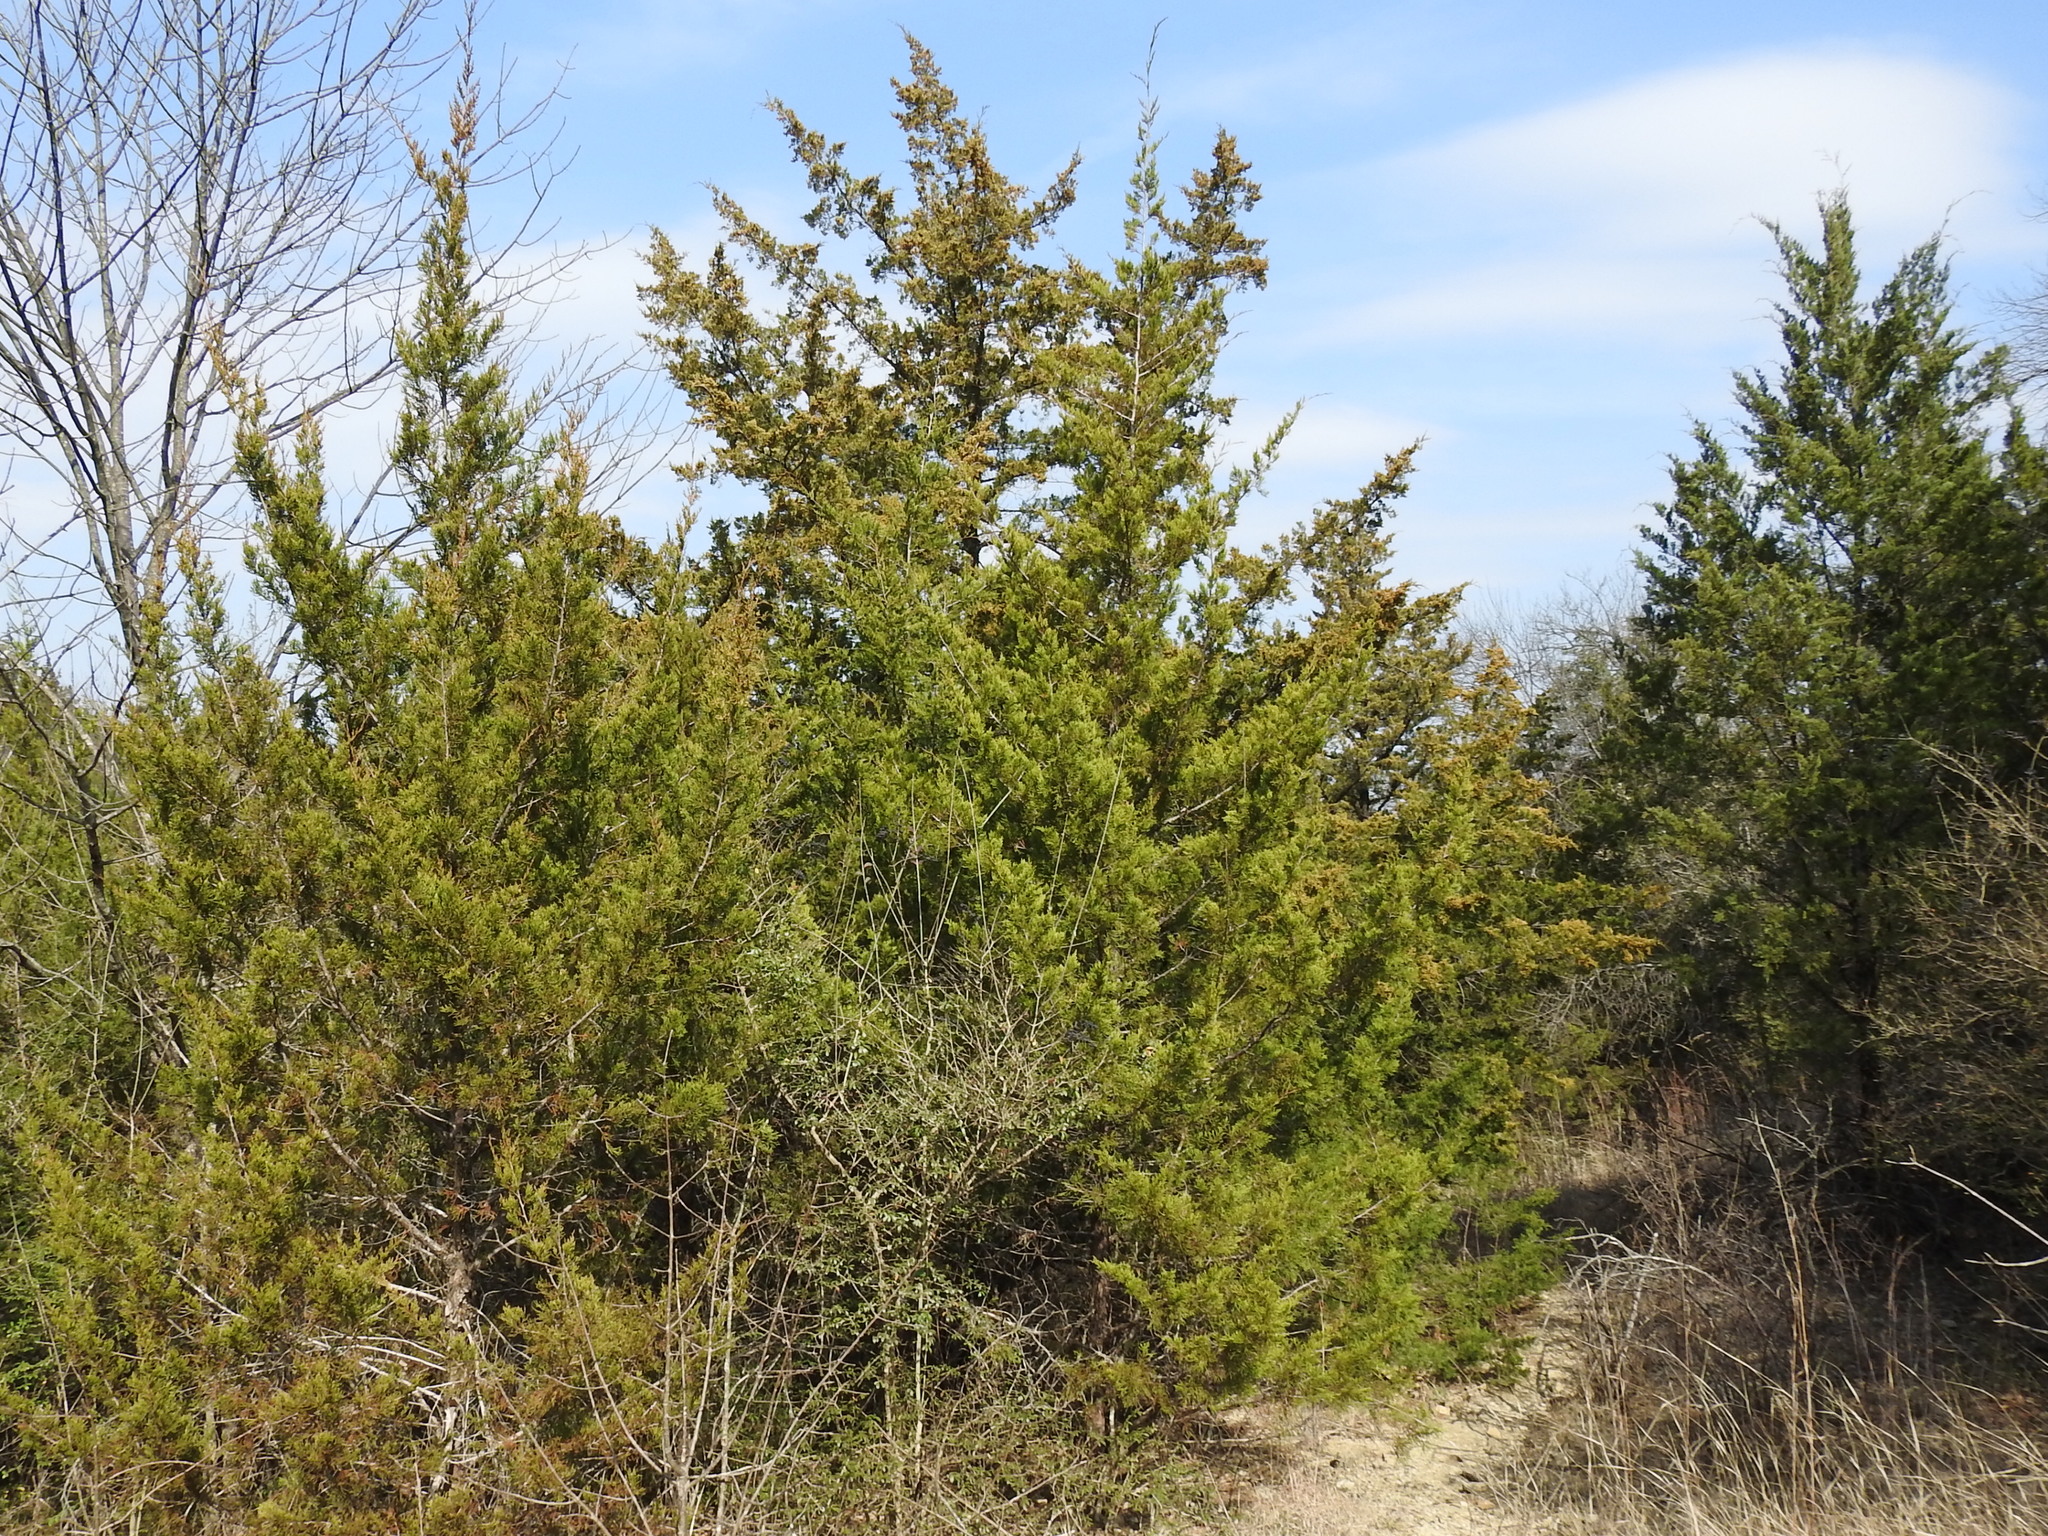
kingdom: Plantae
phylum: Tracheophyta
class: Pinopsida
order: Pinales
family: Cupressaceae
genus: Juniperus
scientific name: Juniperus virginiana
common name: Red juniper
